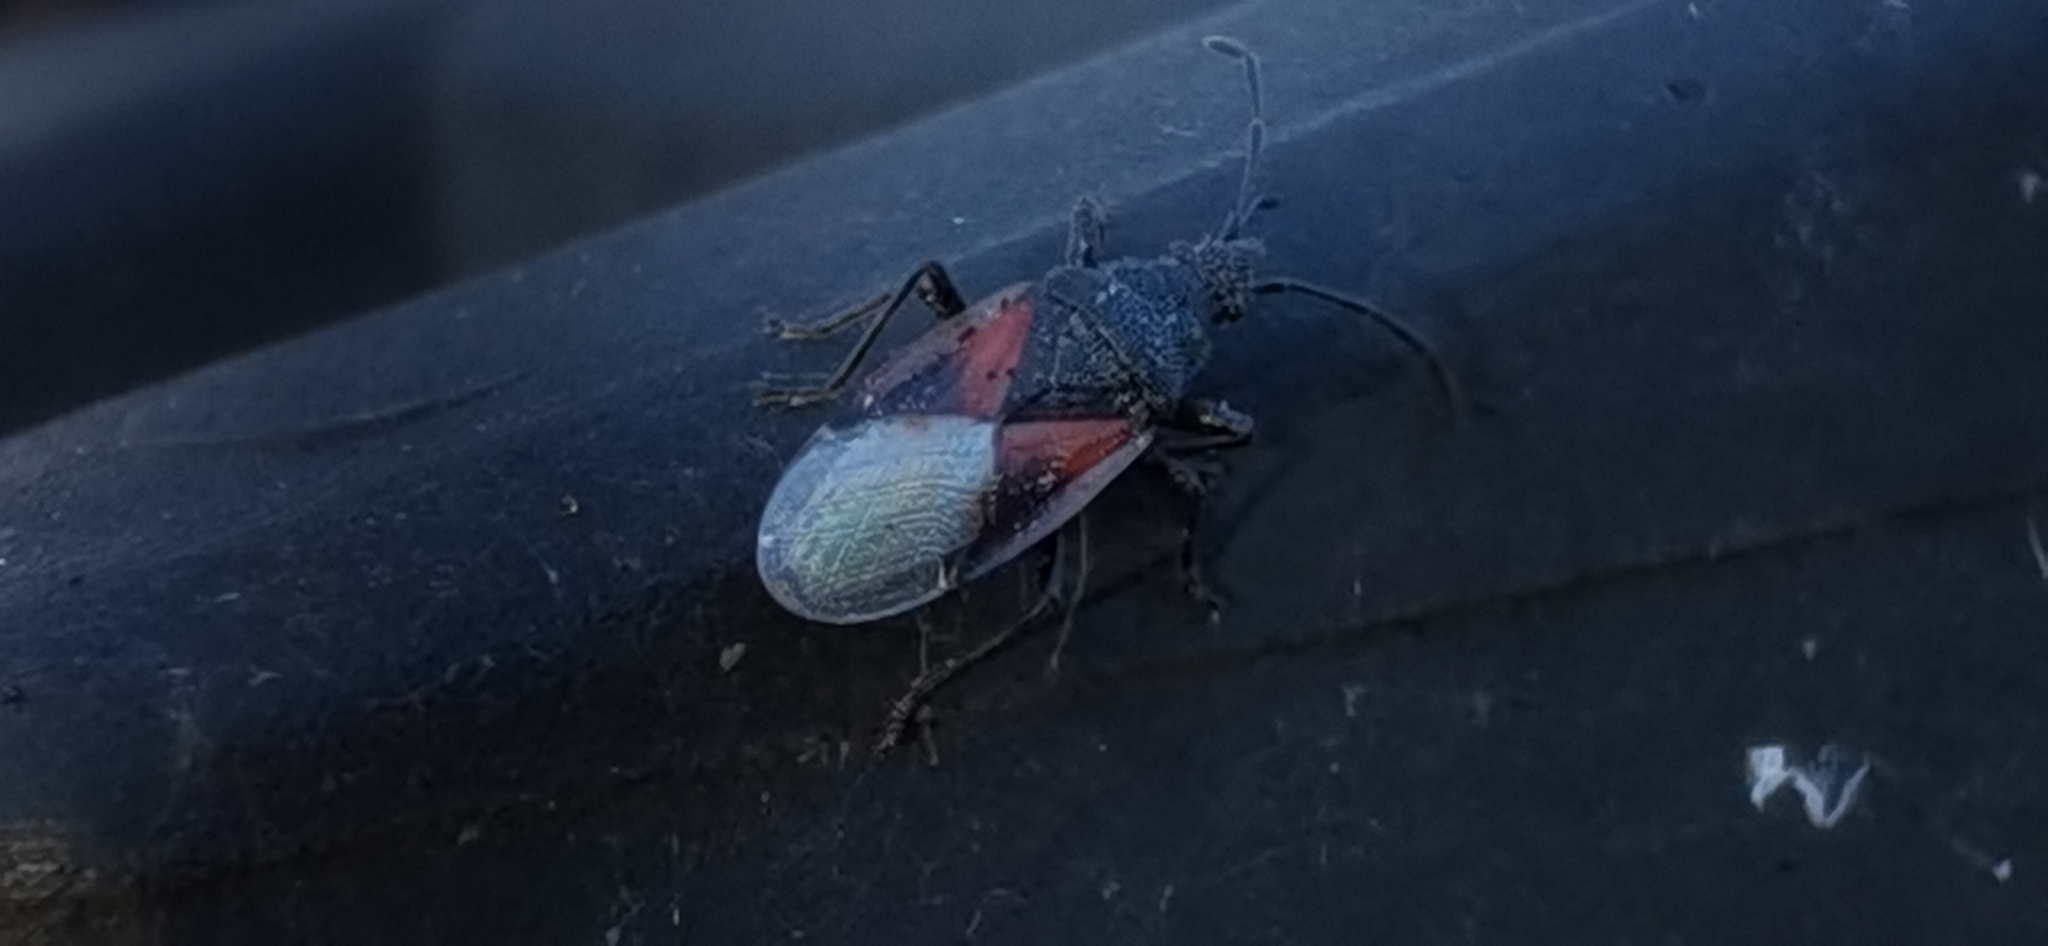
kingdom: Animalia
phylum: Arthropoda
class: Insecta
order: Hemiptera
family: Oxycarenidae
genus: Oxycarenus
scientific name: Oxycarenus lavaterae
